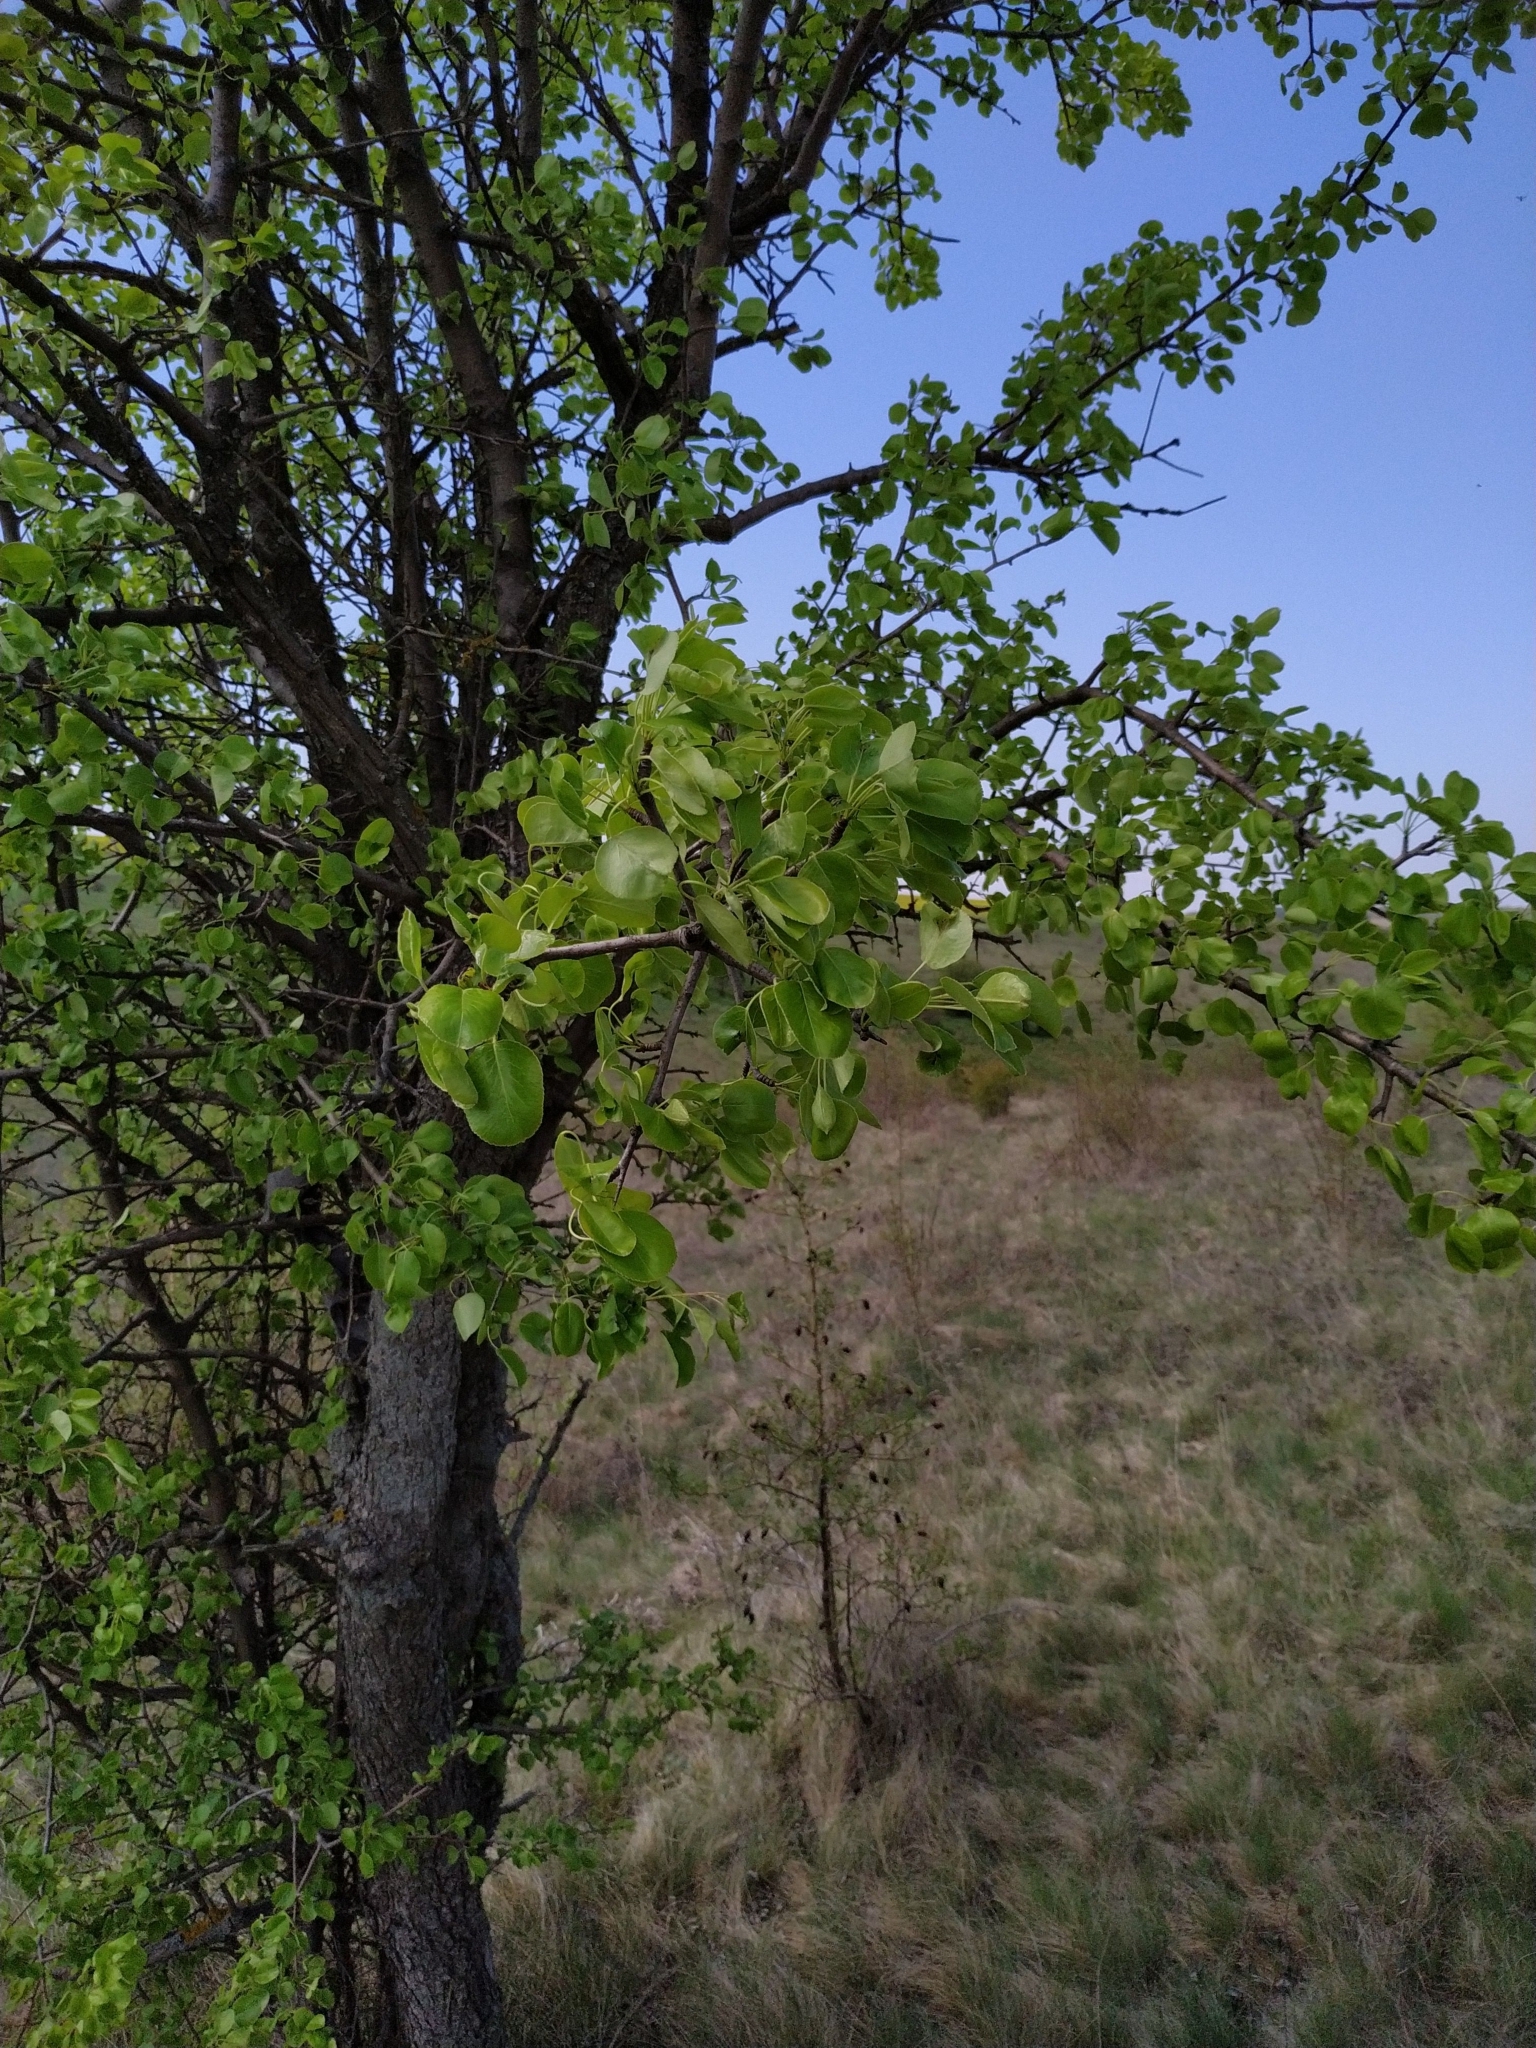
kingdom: Plantae
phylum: Tracheophyta
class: Magnoliopsida
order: Rosales
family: Rosaceae
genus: Pyrus
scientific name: Pyrus communis
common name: Pear
